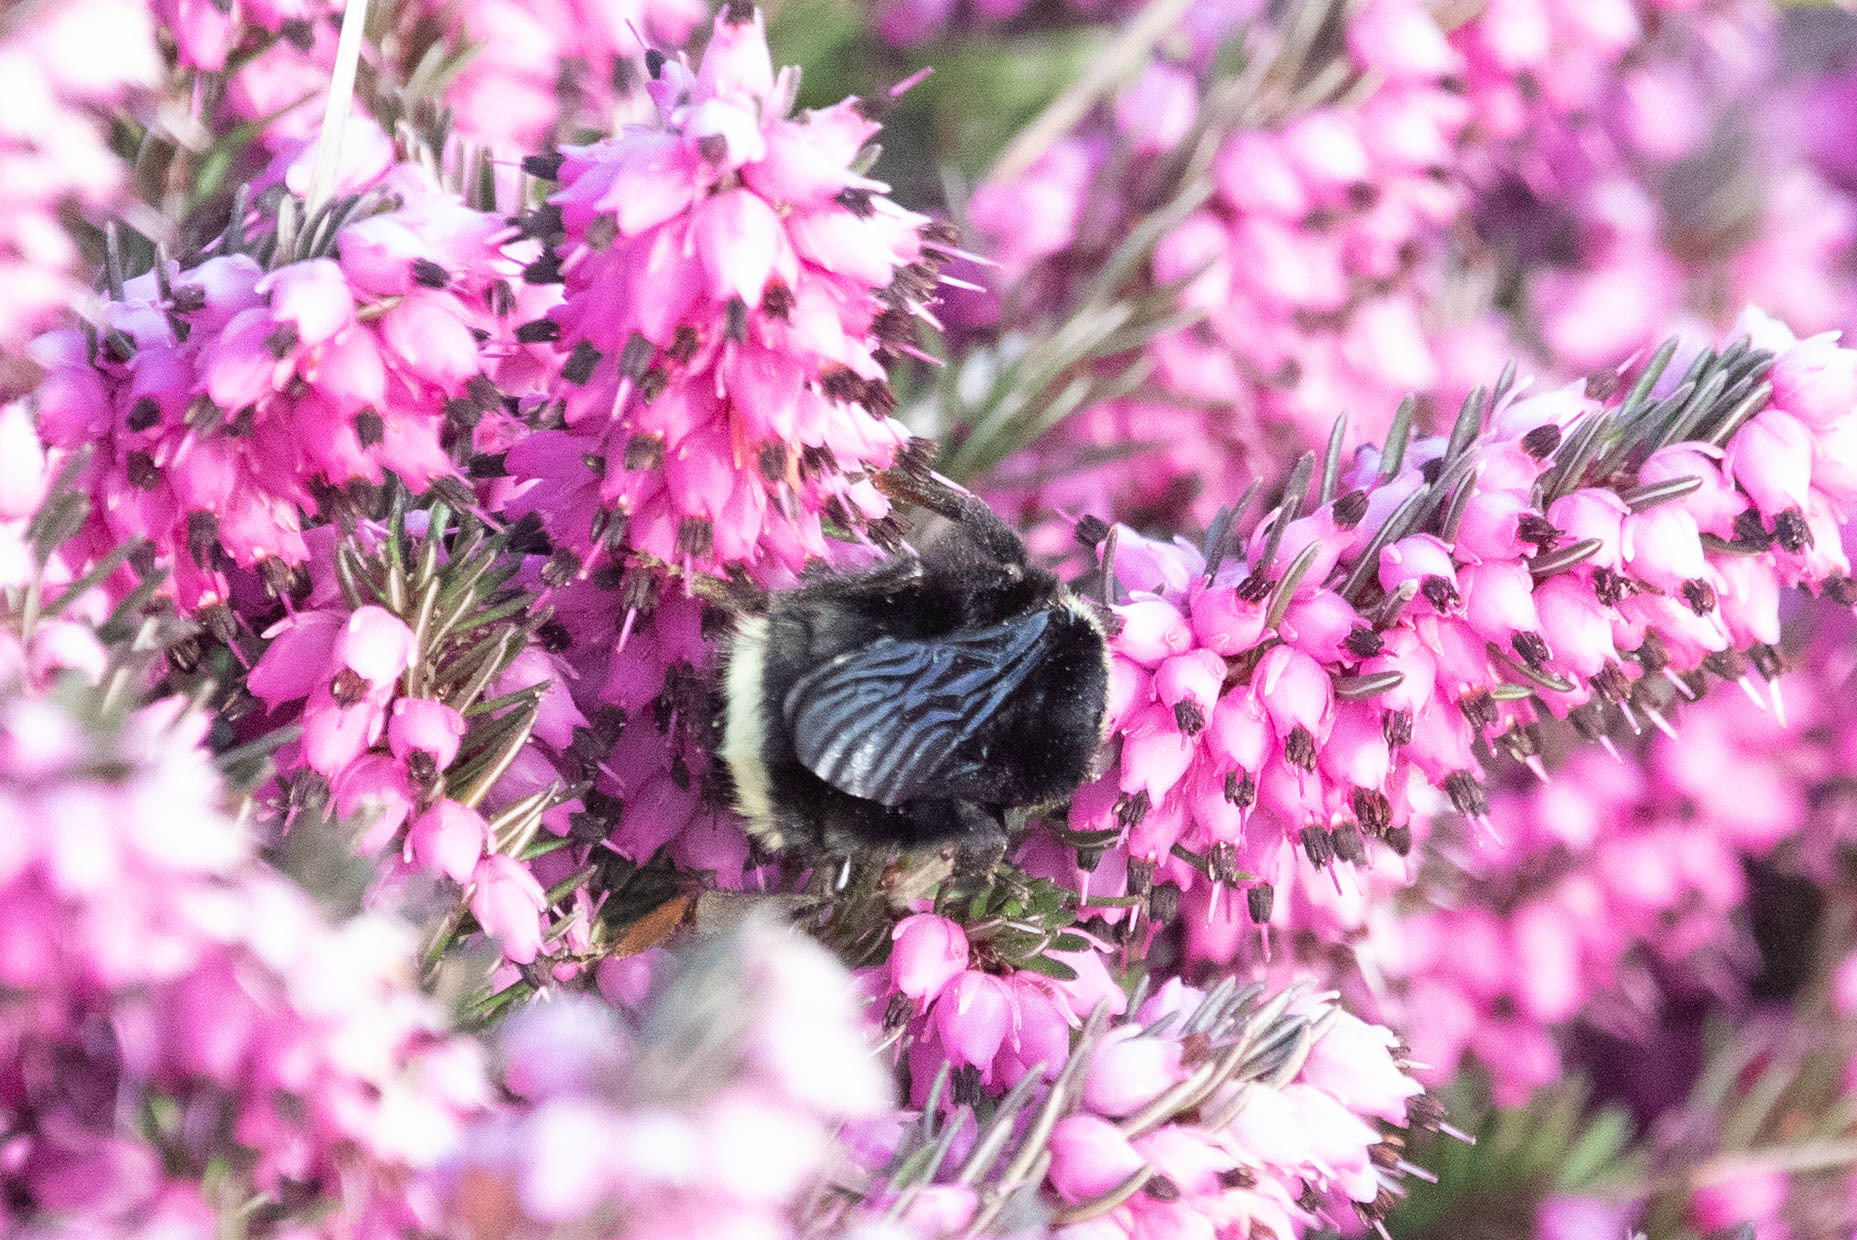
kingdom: Animalia
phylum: Arthropoda
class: Insecta
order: Hymenoptera
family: Apidae
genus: Bombus
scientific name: Bombus vosnesenskii
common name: Vosnesensky bumble bee
